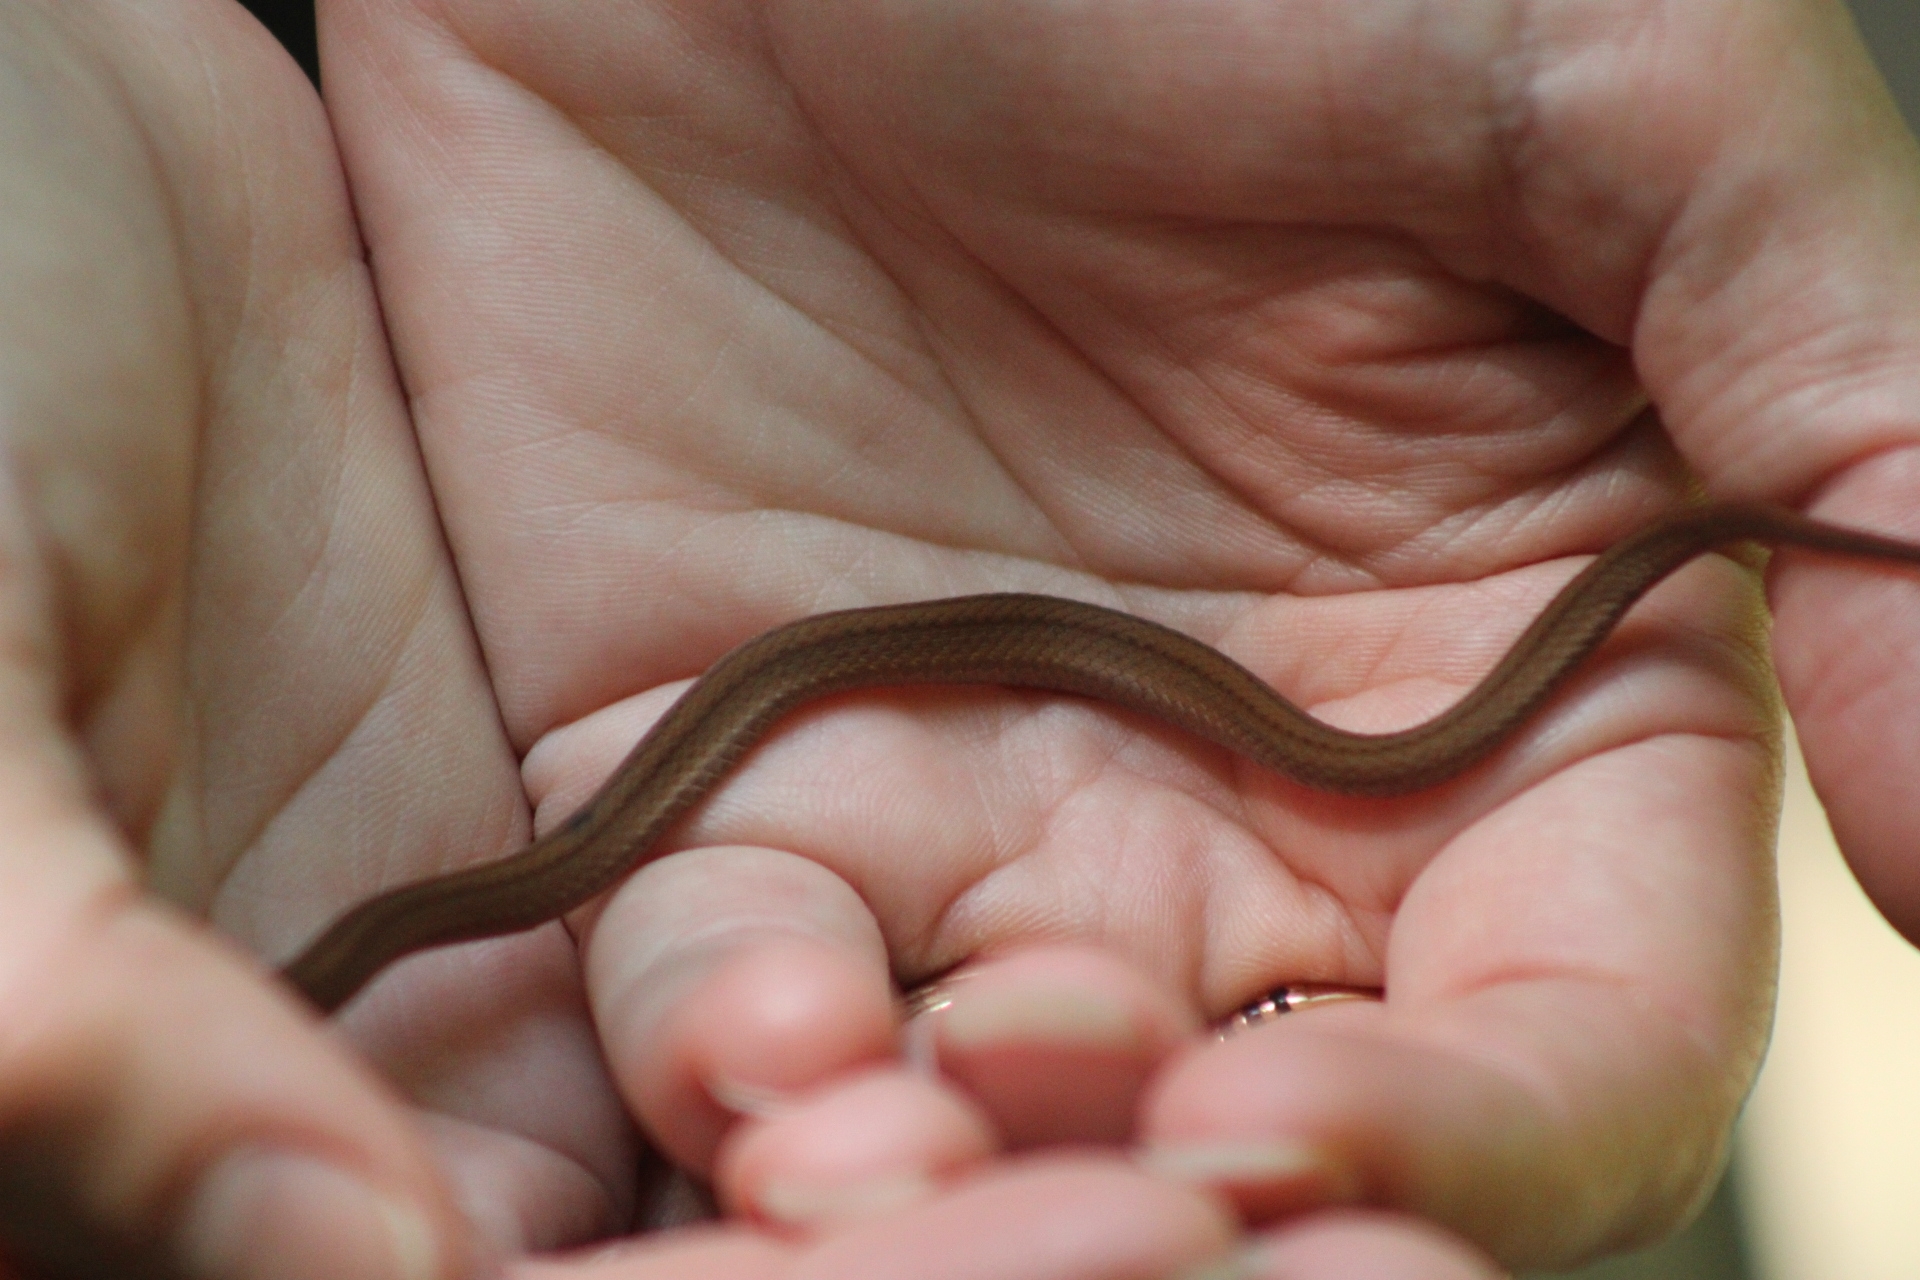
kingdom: Animalia
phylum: Chordata
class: Squamata
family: Colubridae
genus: Storeria
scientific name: Storeria occipitomaculata
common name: Redbelly snake
